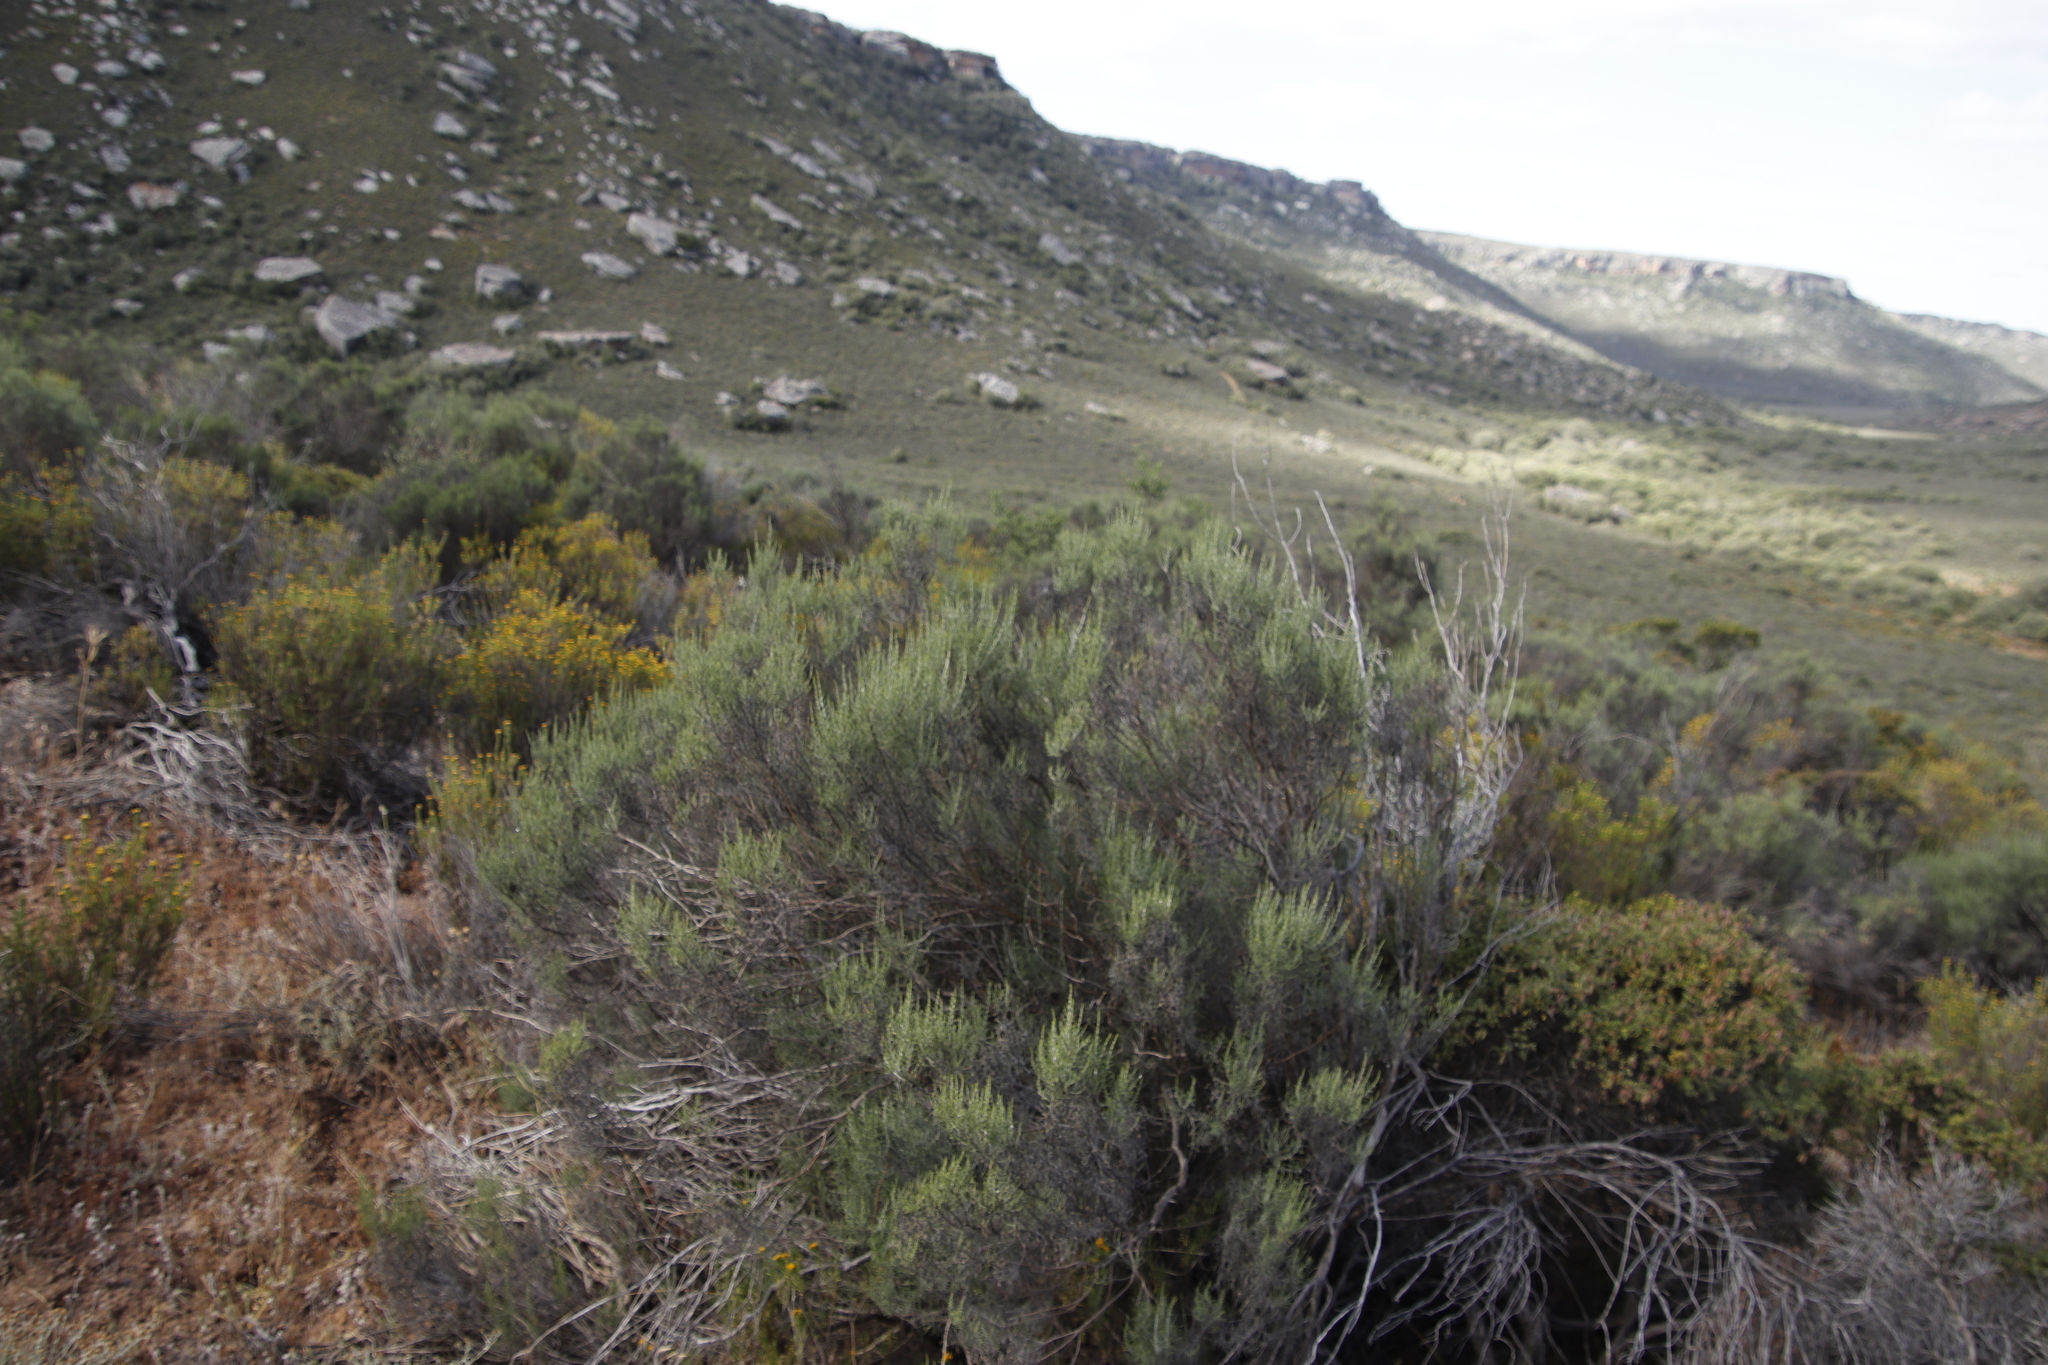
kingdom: Plantae
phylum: Tracheophyta
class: Magnoliopsida
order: Asterales
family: Asteraceae
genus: Dicerothamnus
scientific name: Dicerothamnus rhinocerotis
